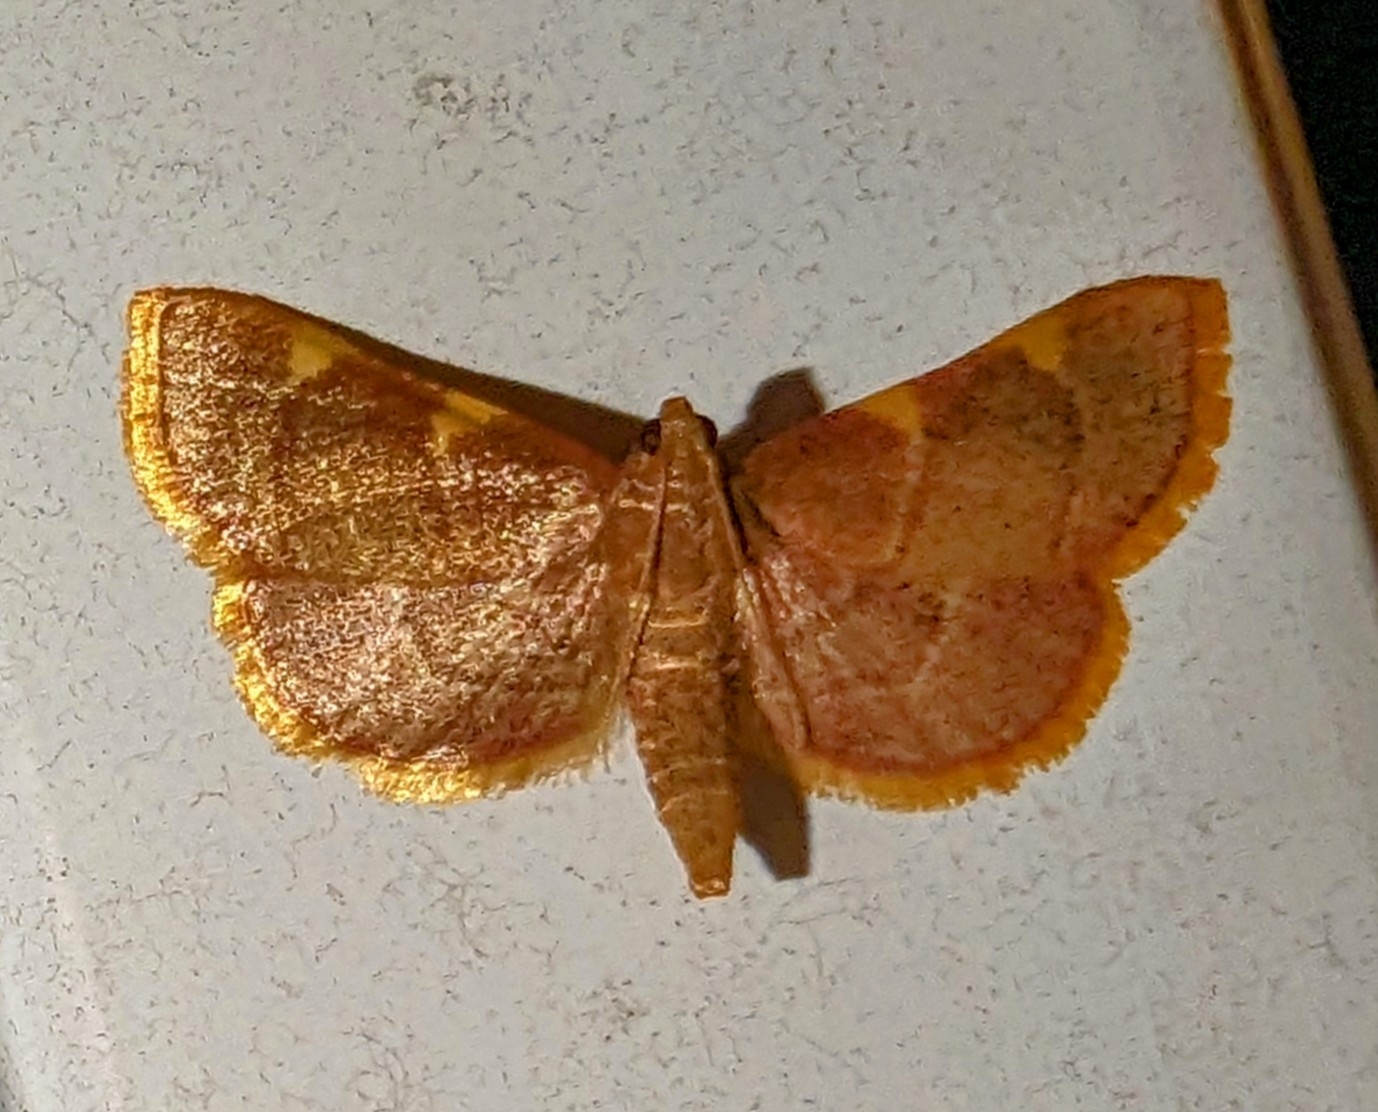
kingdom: Animalia
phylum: Arthropoda
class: Insecta
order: Lepidoptera
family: Pyralidae
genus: Hypsopygia
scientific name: Hypsopygia olinalis
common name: Yellow-fringed dolichomia moth
